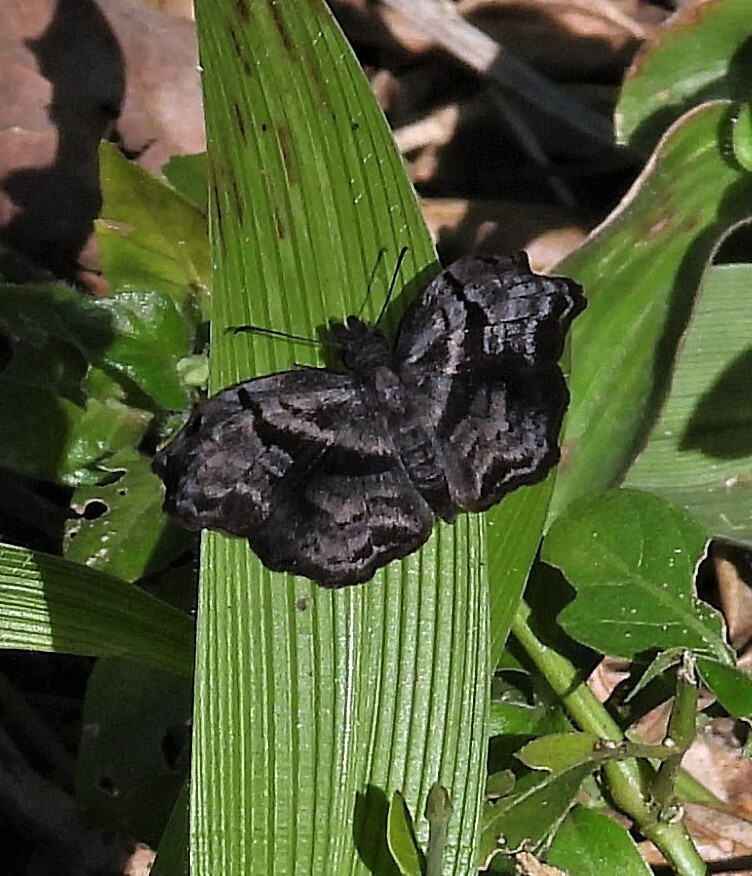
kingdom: Animalia
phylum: Arthropoda
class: Insecta
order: Lepidoptera
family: Hesperiidae
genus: Helias
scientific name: Helias phalaenoides
